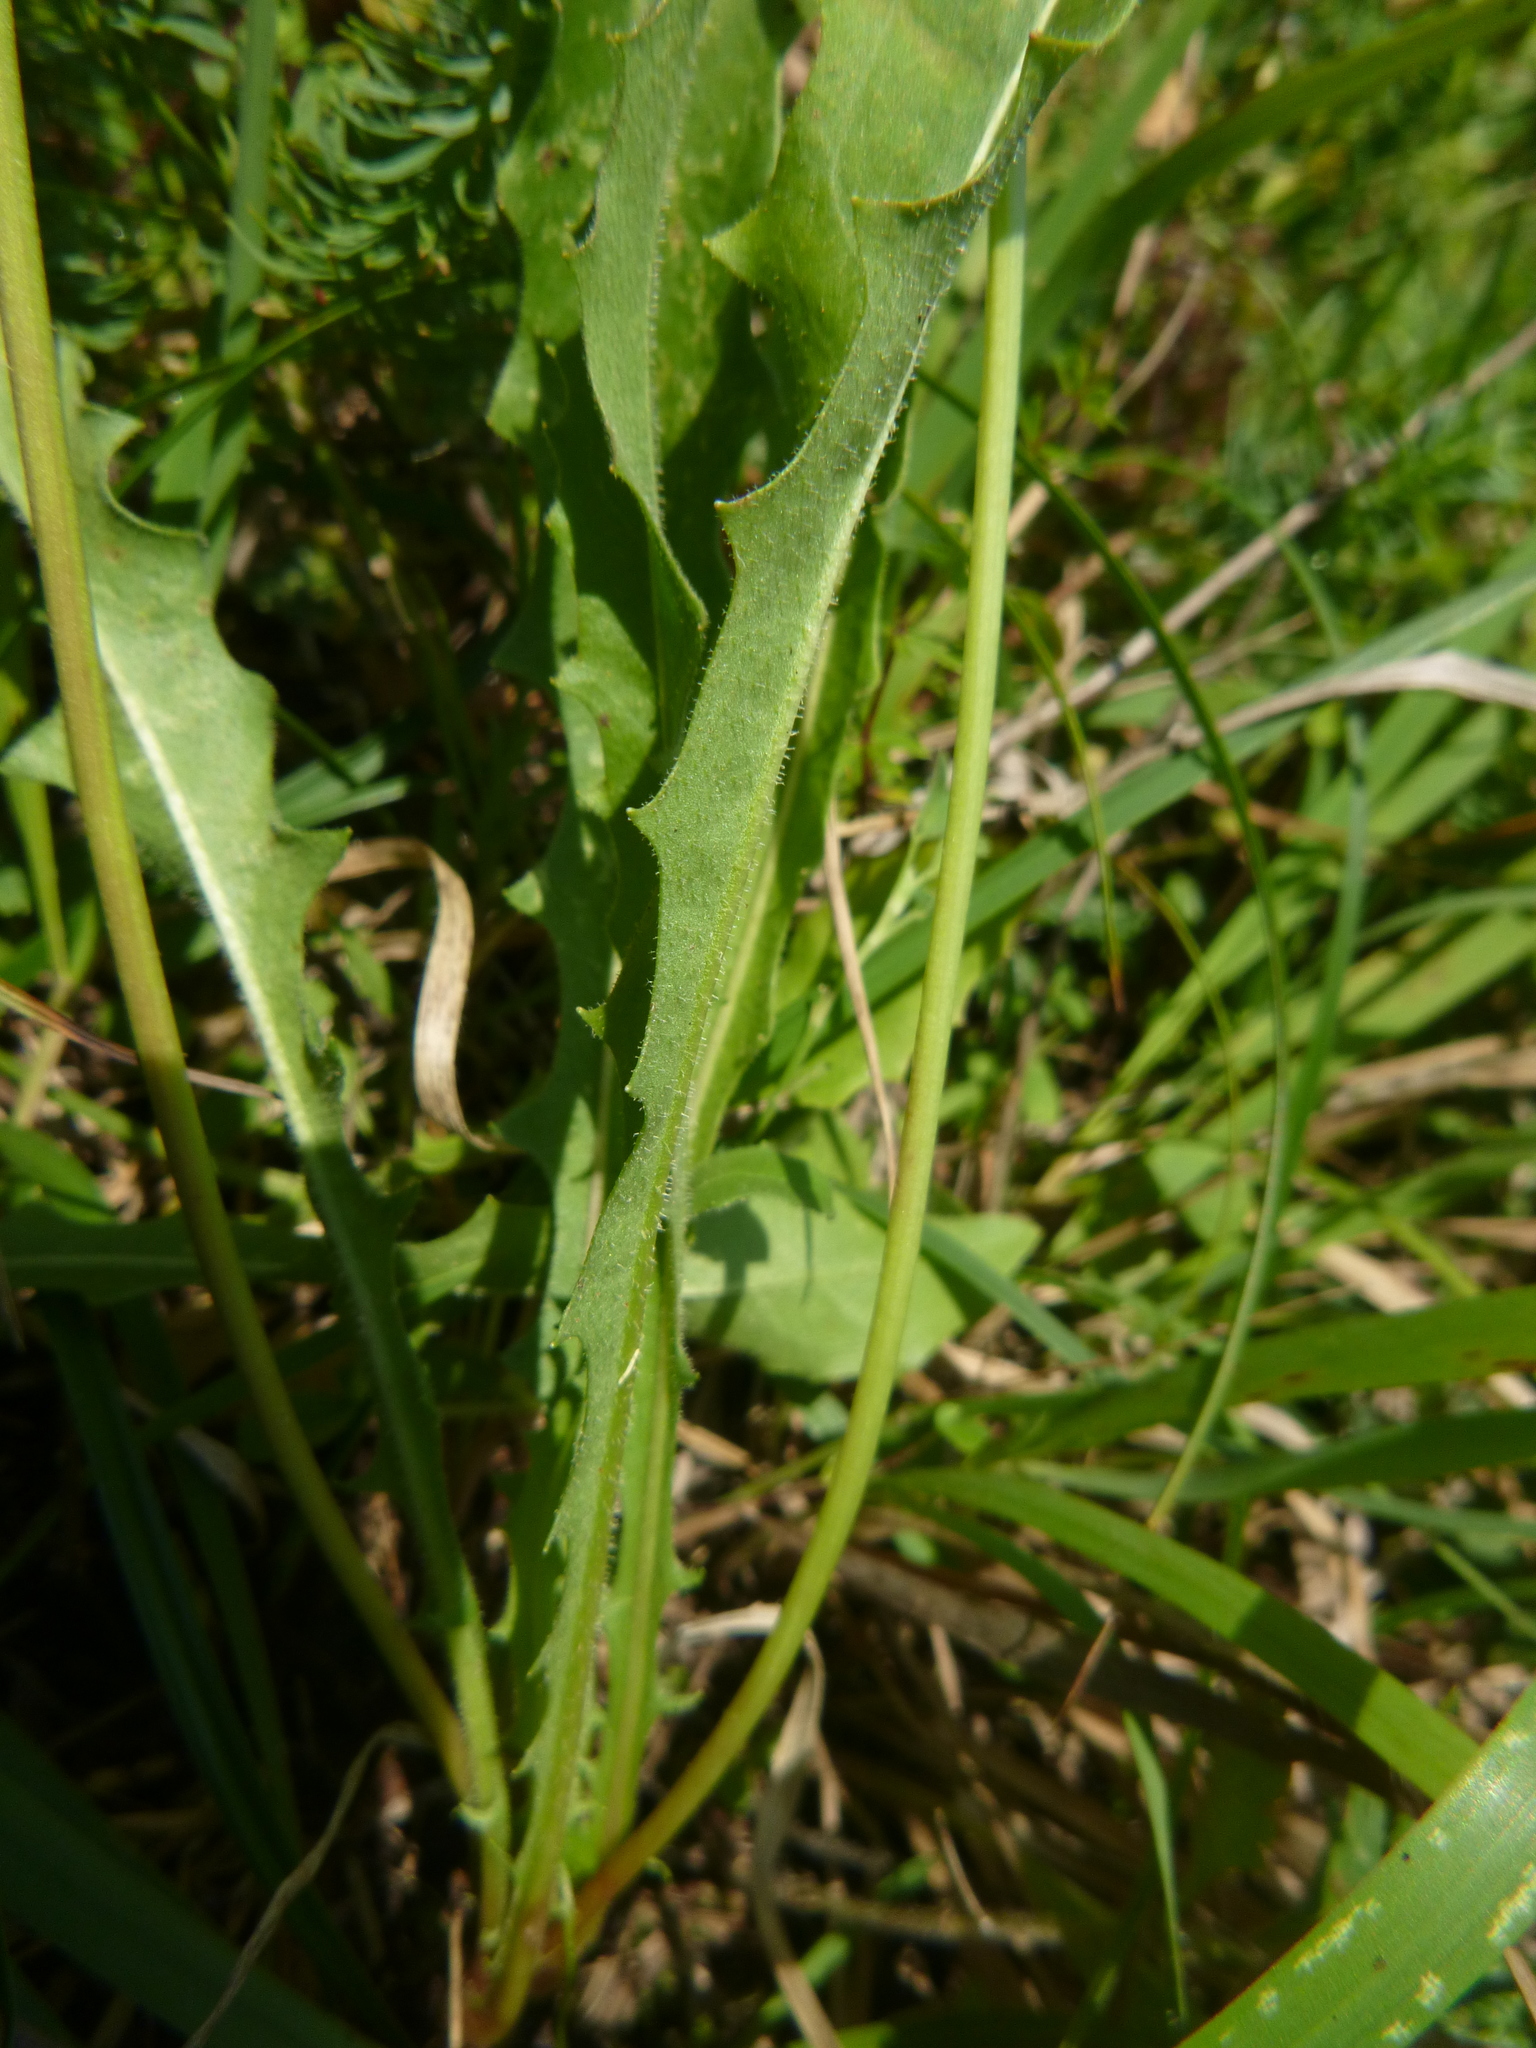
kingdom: Plantae
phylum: Tracheophyta
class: Magnoliopsida
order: Asterales
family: Asteraceae
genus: Leontodon
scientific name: Leontodon hispidus
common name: Rough hawkbit
